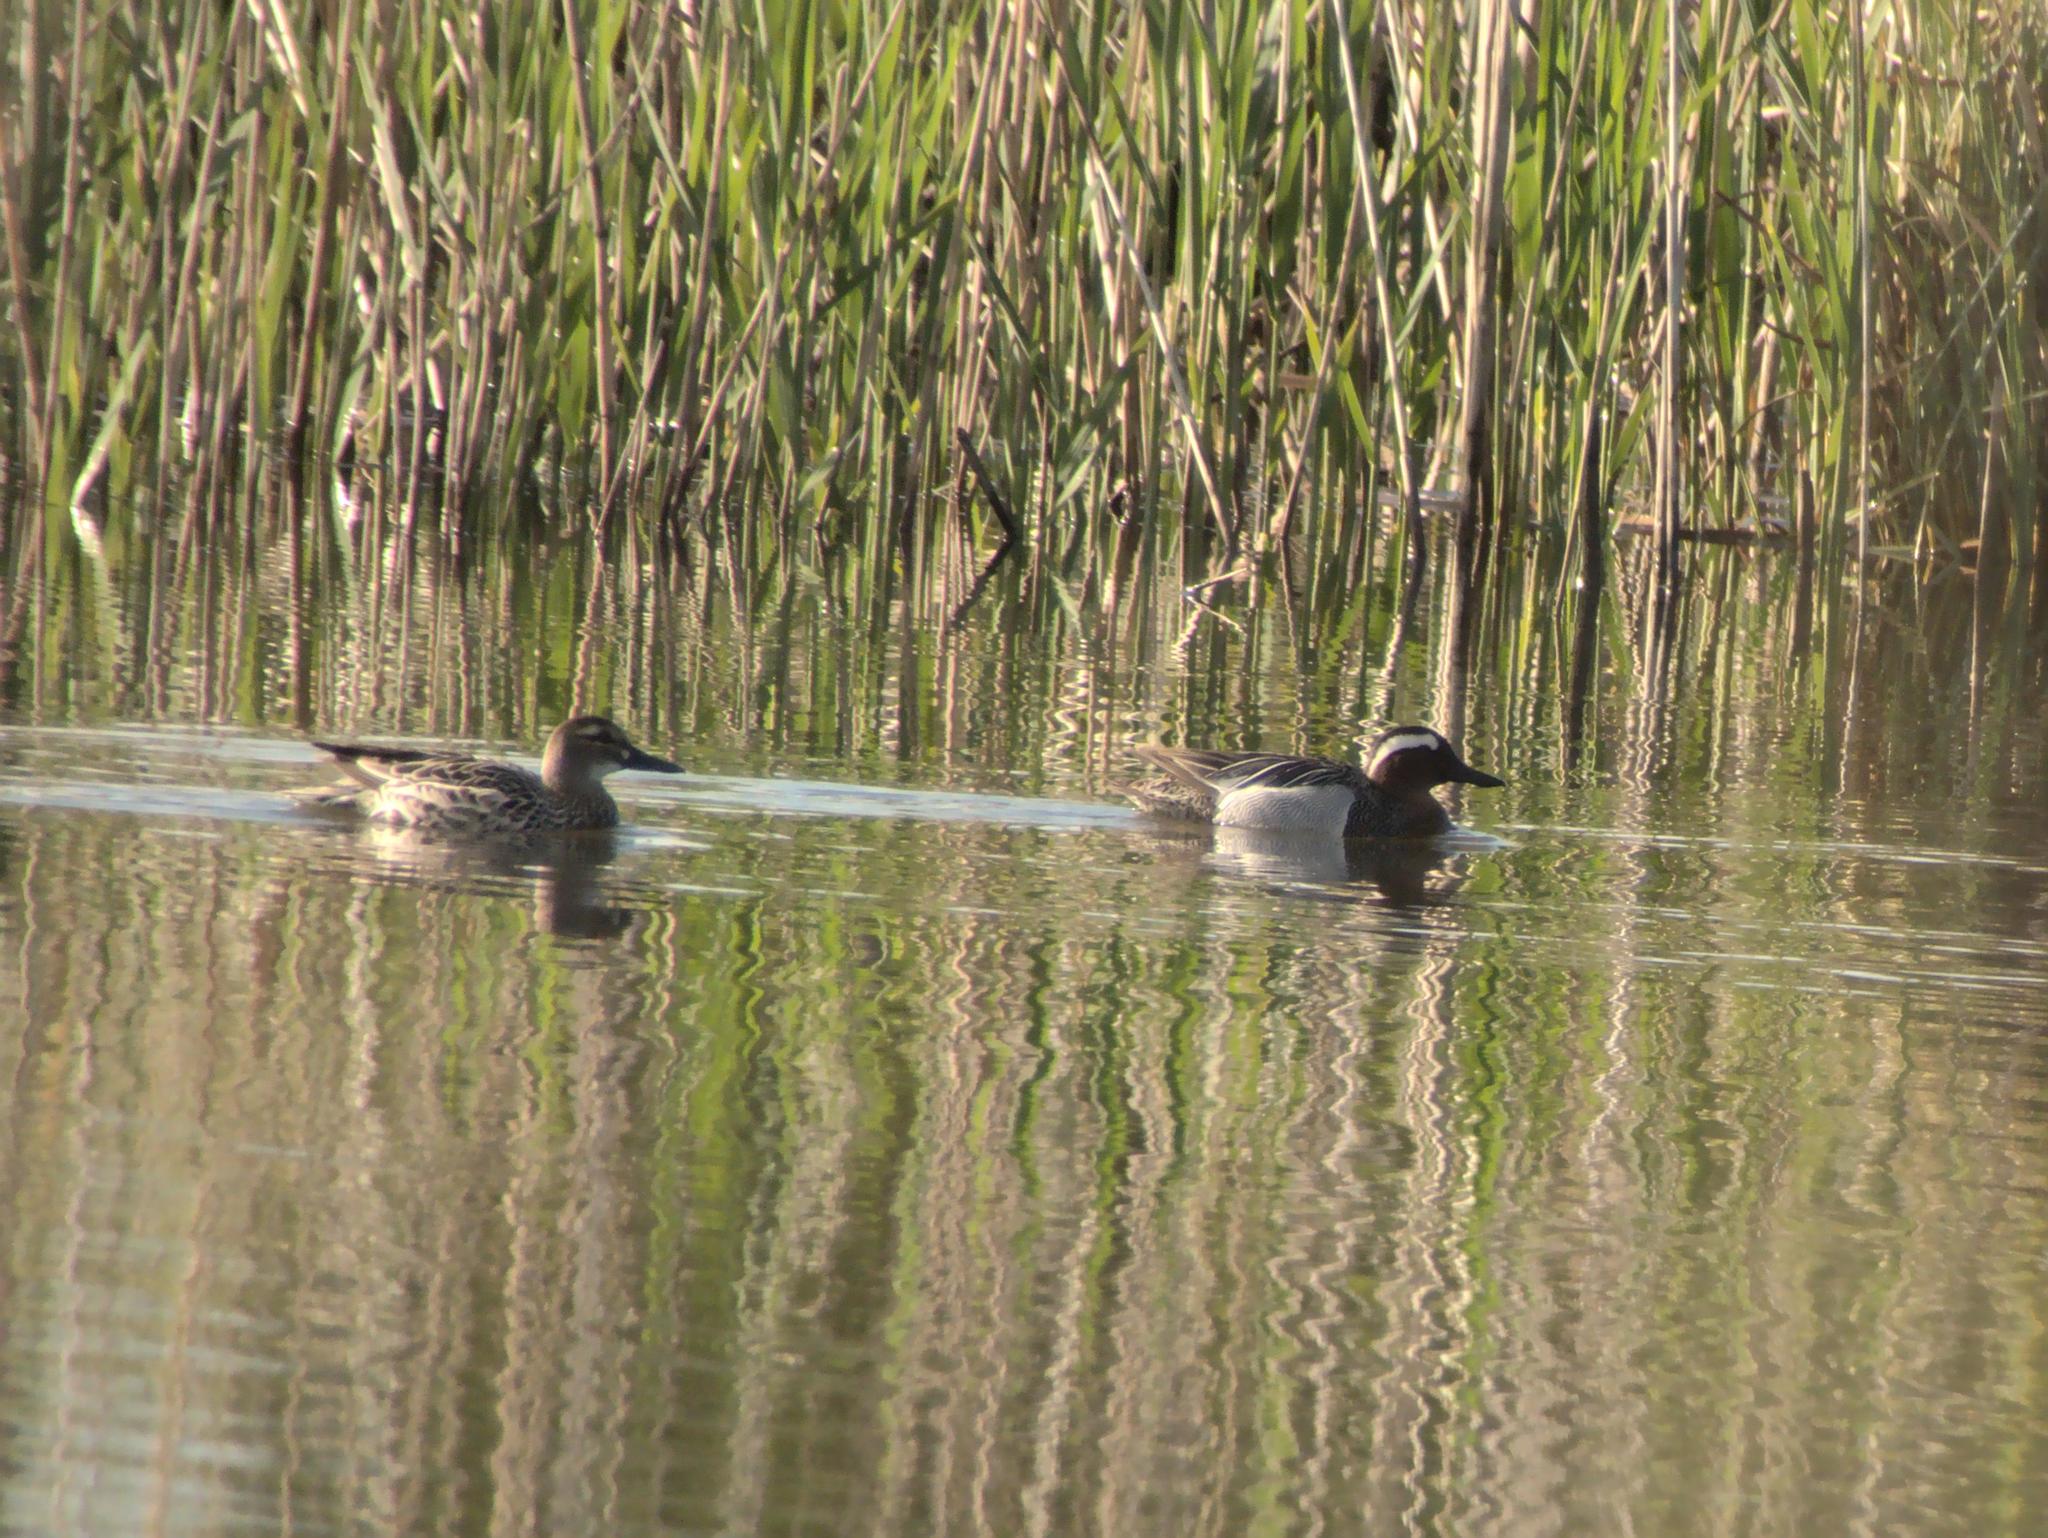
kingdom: Animalia
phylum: Chordata
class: Aves
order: Anseriformes
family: Anatidae
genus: Spatula
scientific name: Spatula querquedula
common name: Garganey
